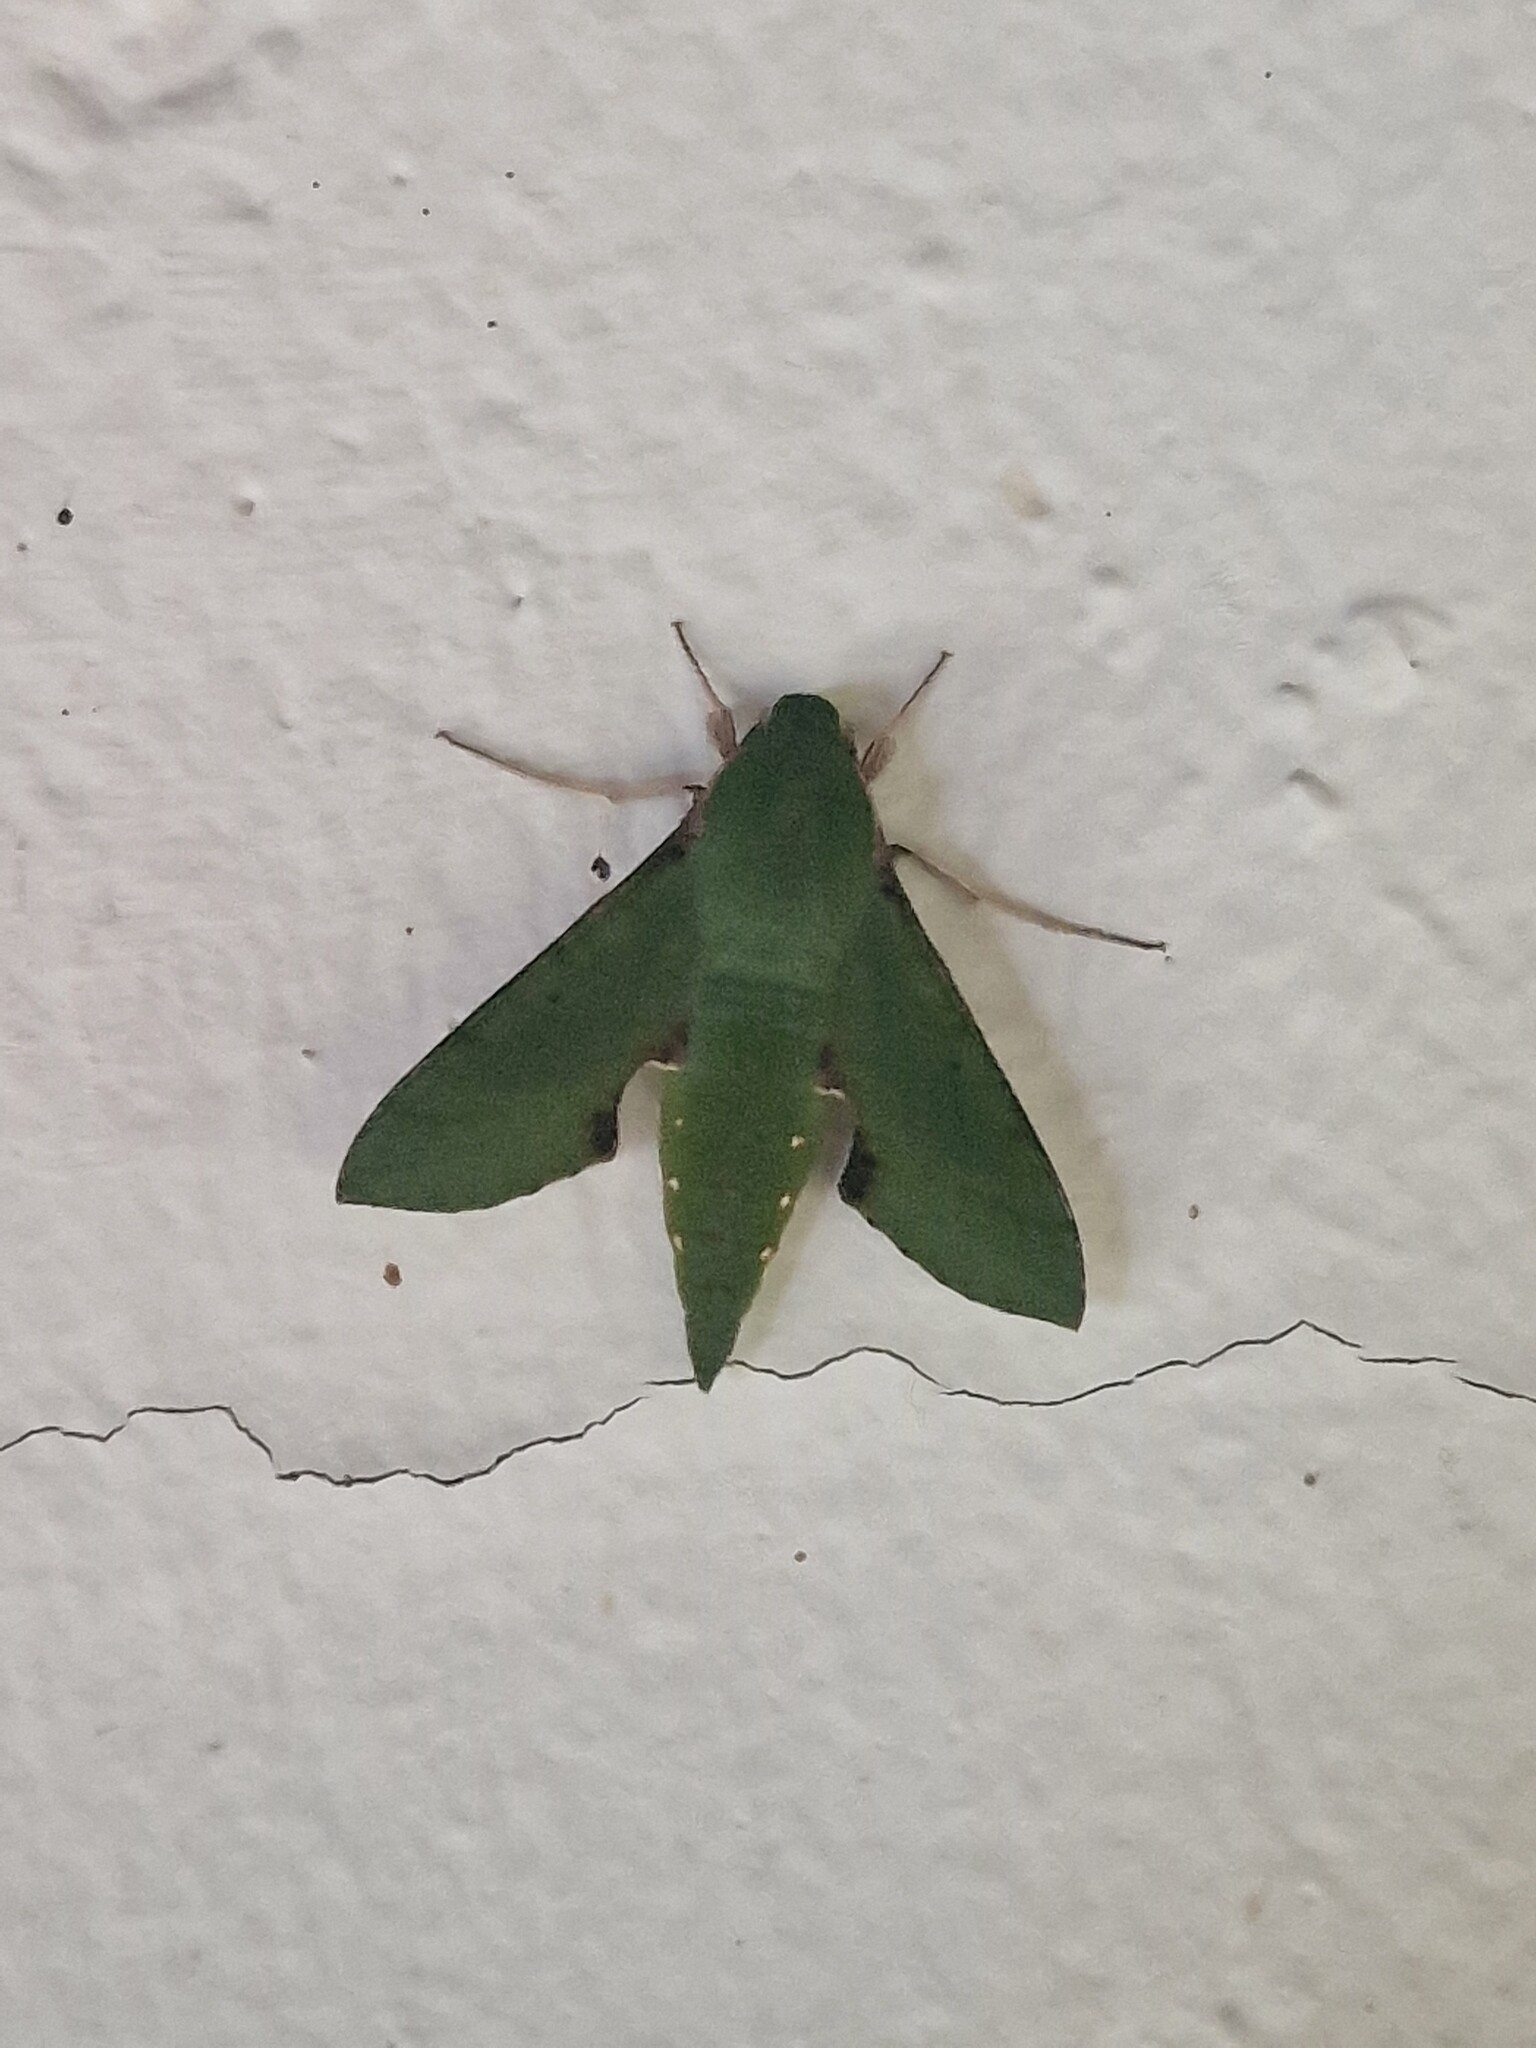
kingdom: Animalia
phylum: Arthropoda
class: Insecta
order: Lepidoptera
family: Sphingidae
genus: Basiothia
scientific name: Basiothia medea
